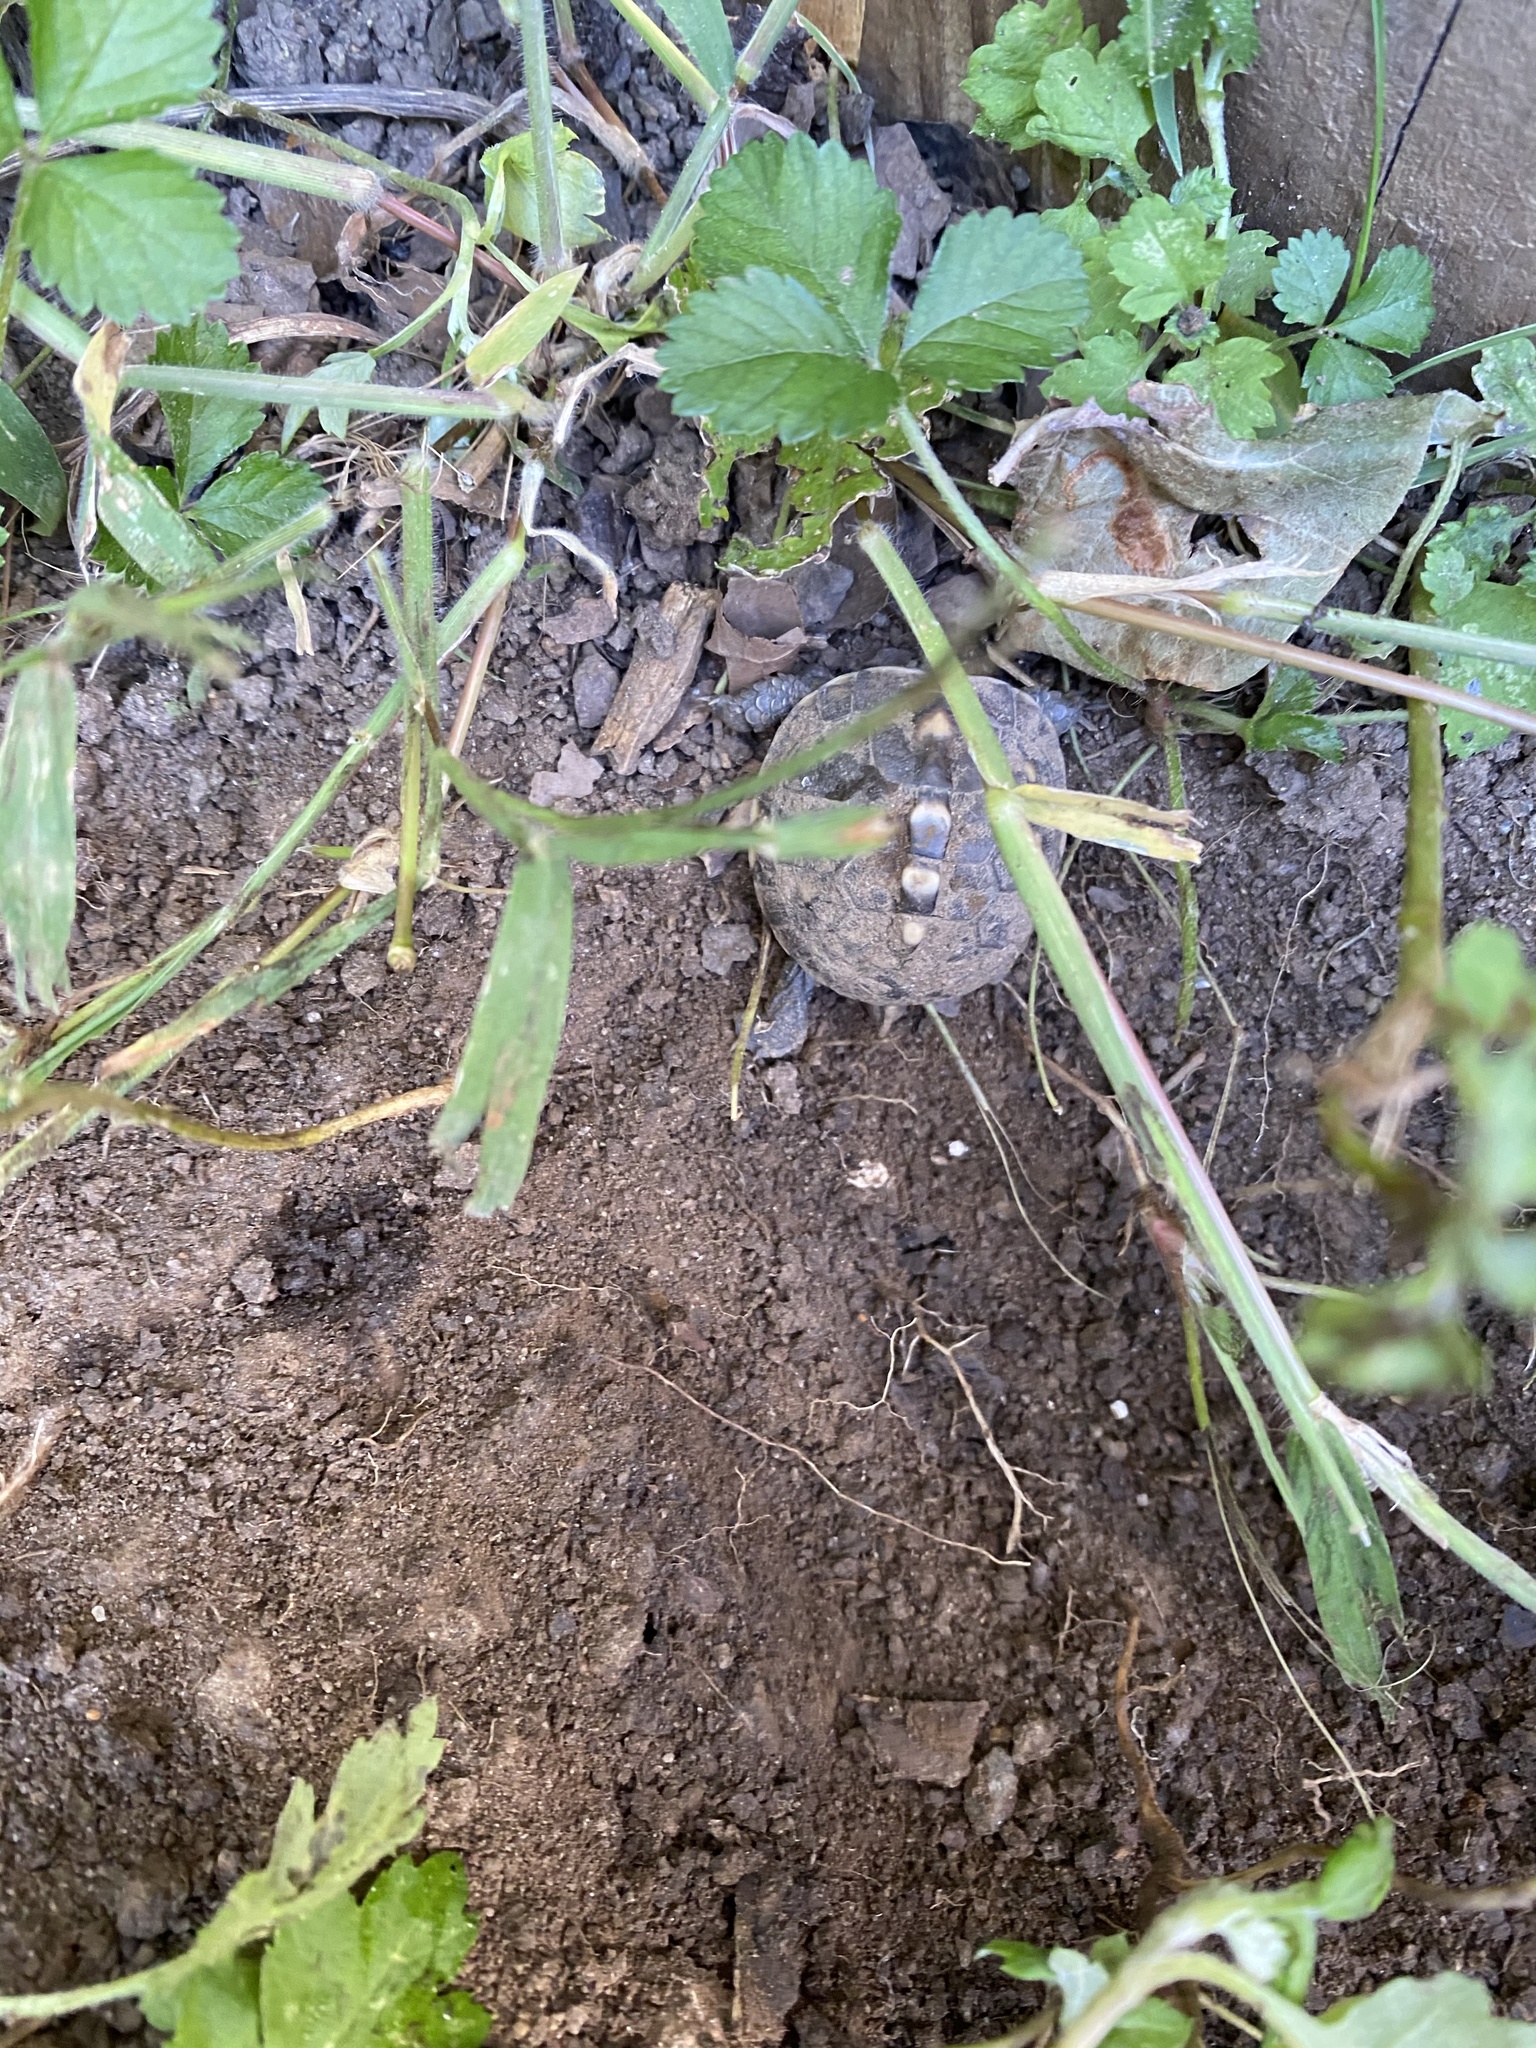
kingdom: Animalia
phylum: Chordata
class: Testudines
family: Emydidae
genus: Terrapene
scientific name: Terrapene carolina
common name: Common box turtle
